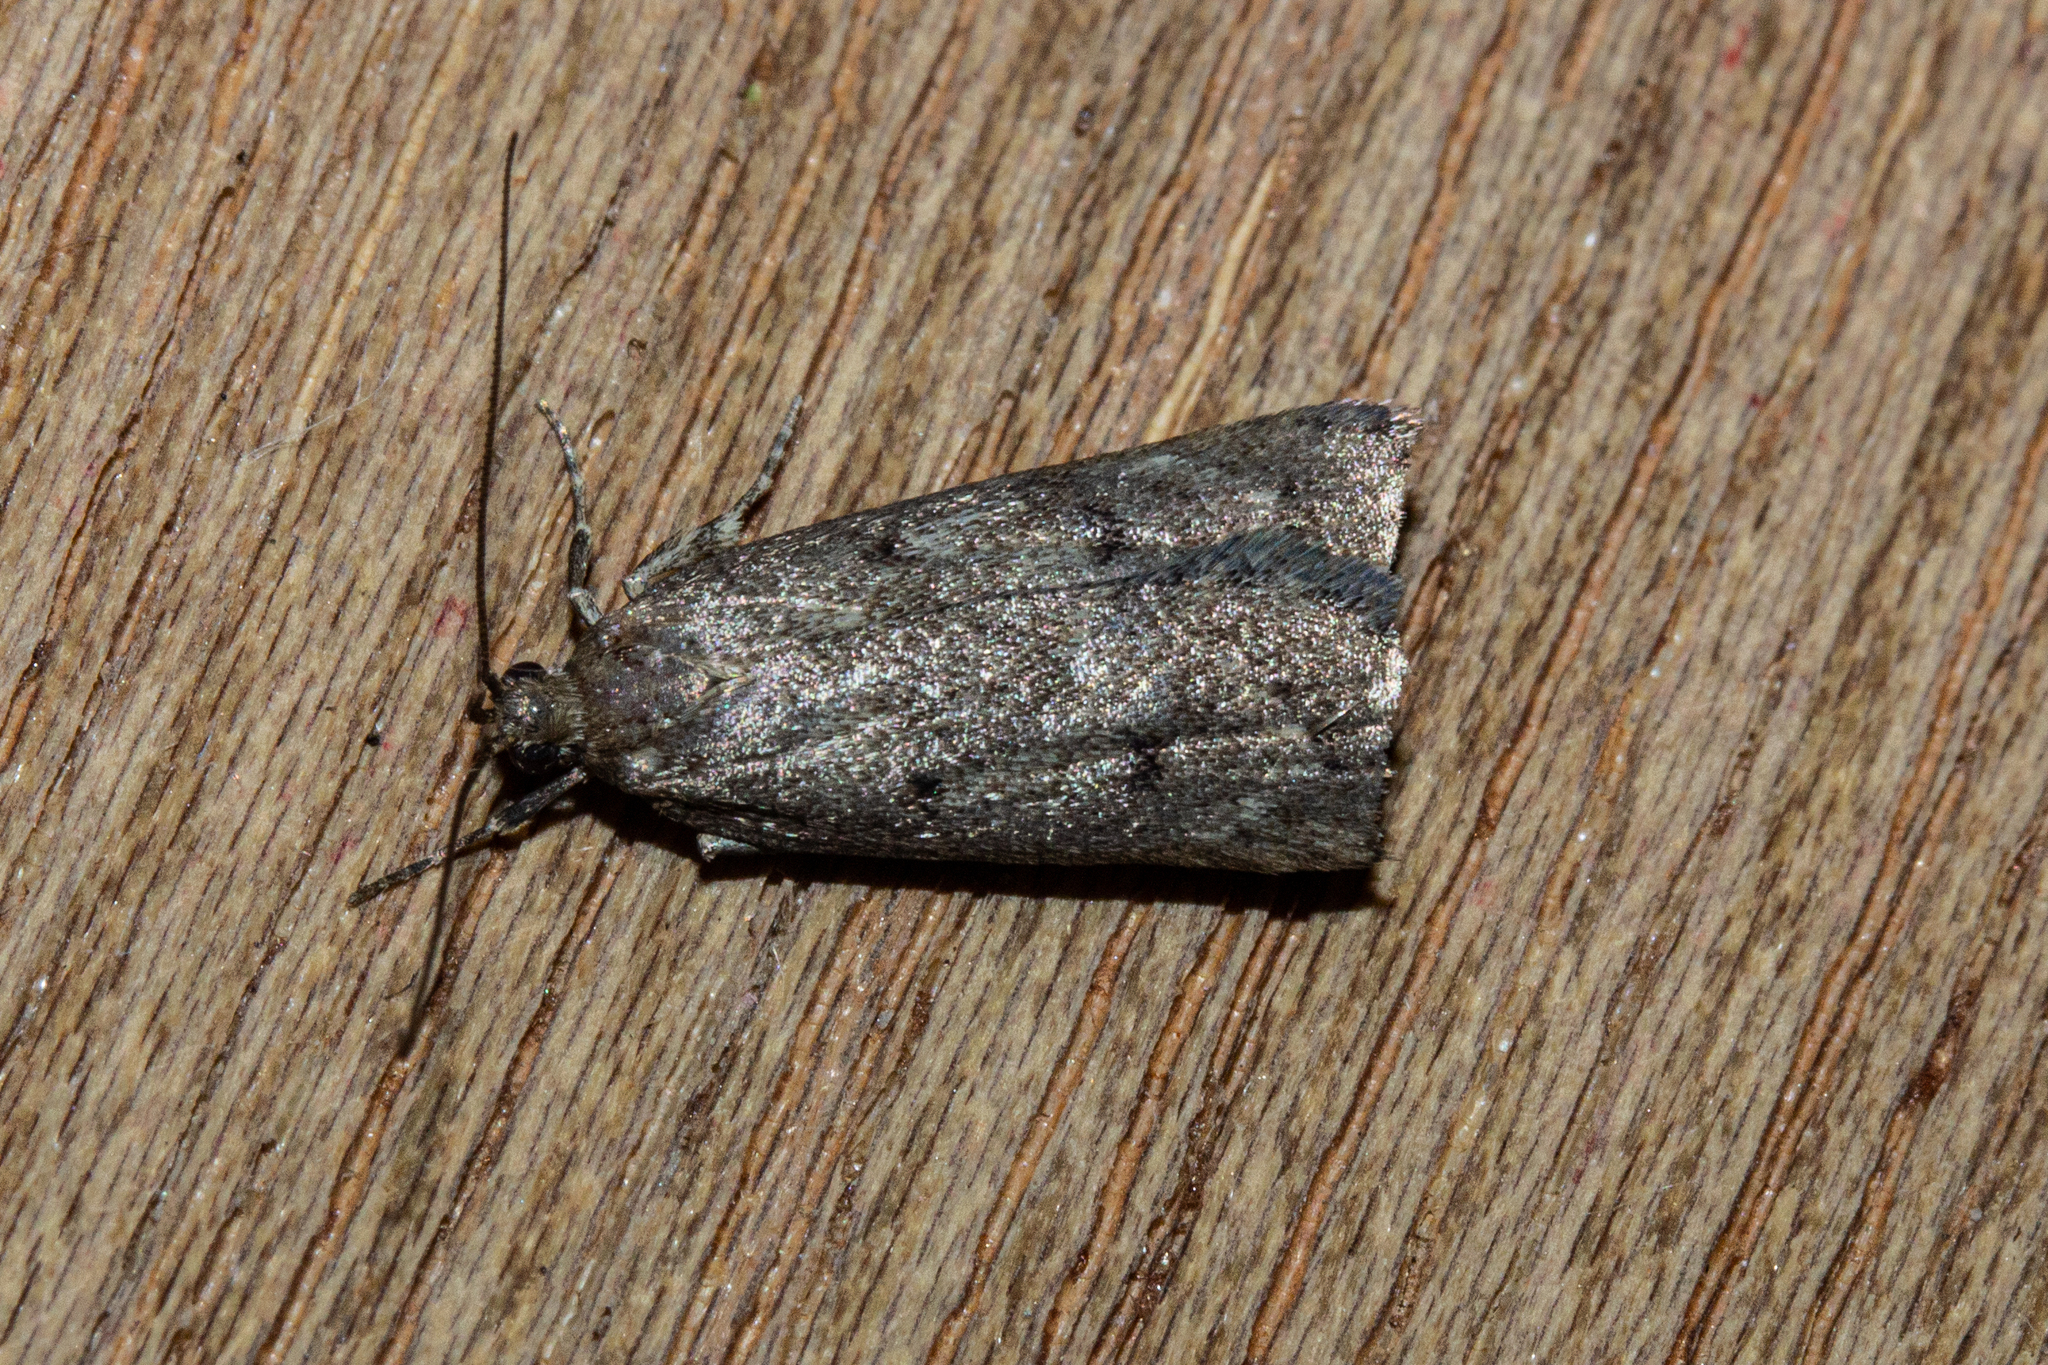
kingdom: Animalia
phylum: Arthropoda
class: Insecta
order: Lepidoptera
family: Depressariidae
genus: Phaeosaces
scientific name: Phaeosaces apocrypta
